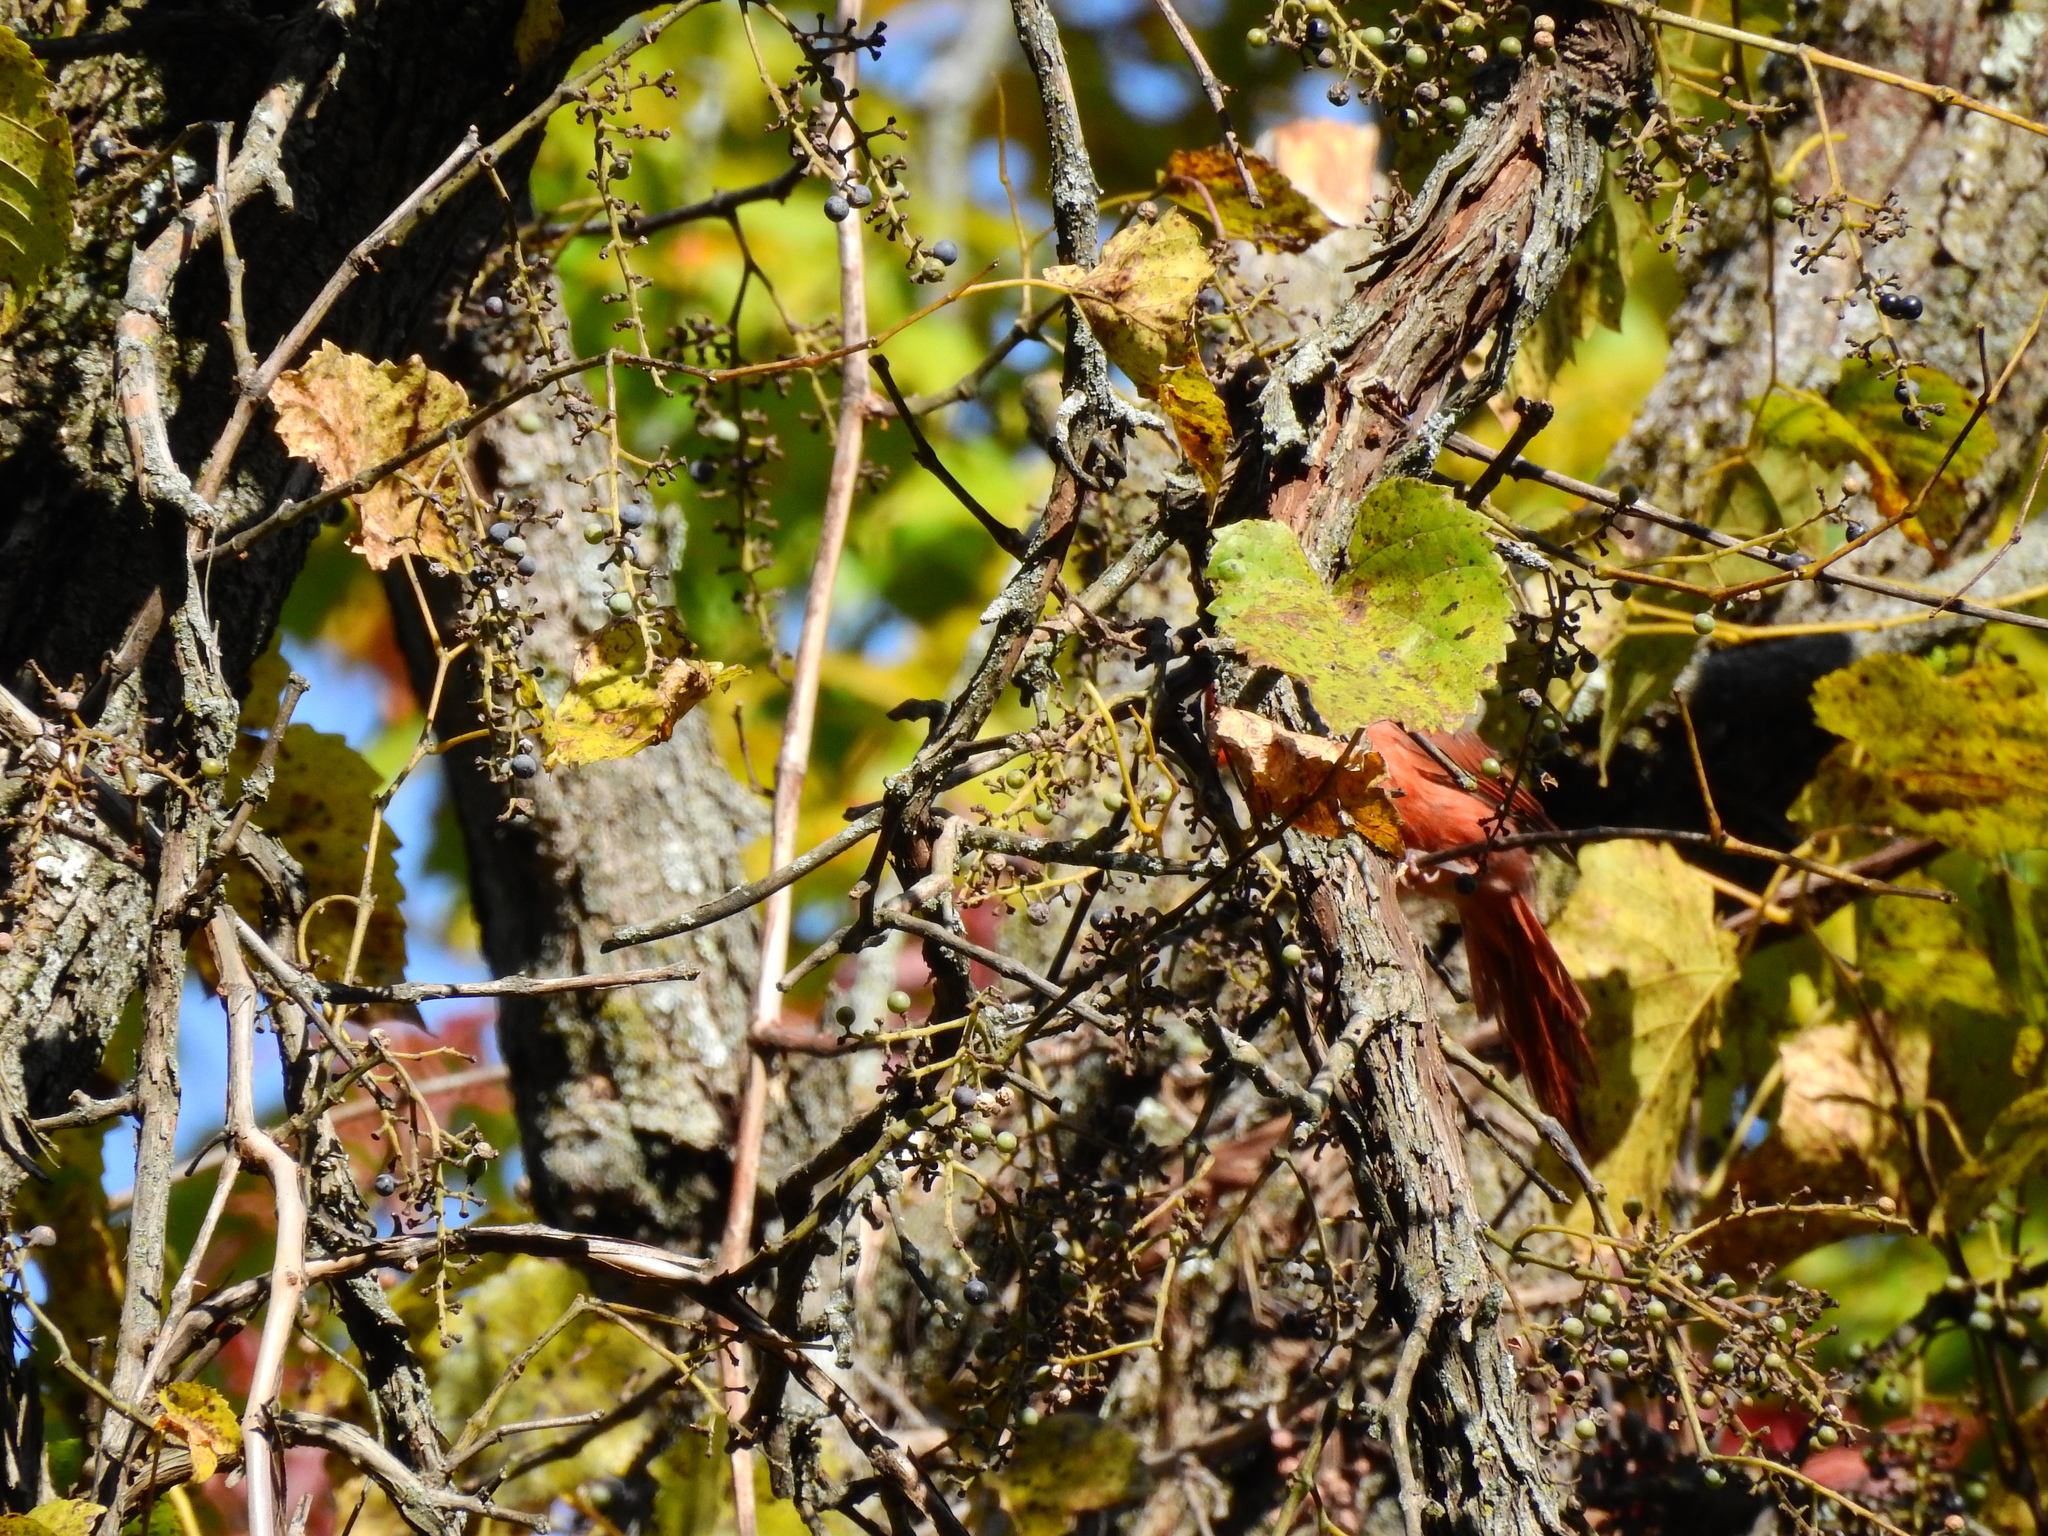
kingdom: Animalia
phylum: Chordata
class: Aves
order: Passeriformes
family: Cardinalidae
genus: Cardinalis
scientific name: Cardinalis cardinalis
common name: Northern cardinal
